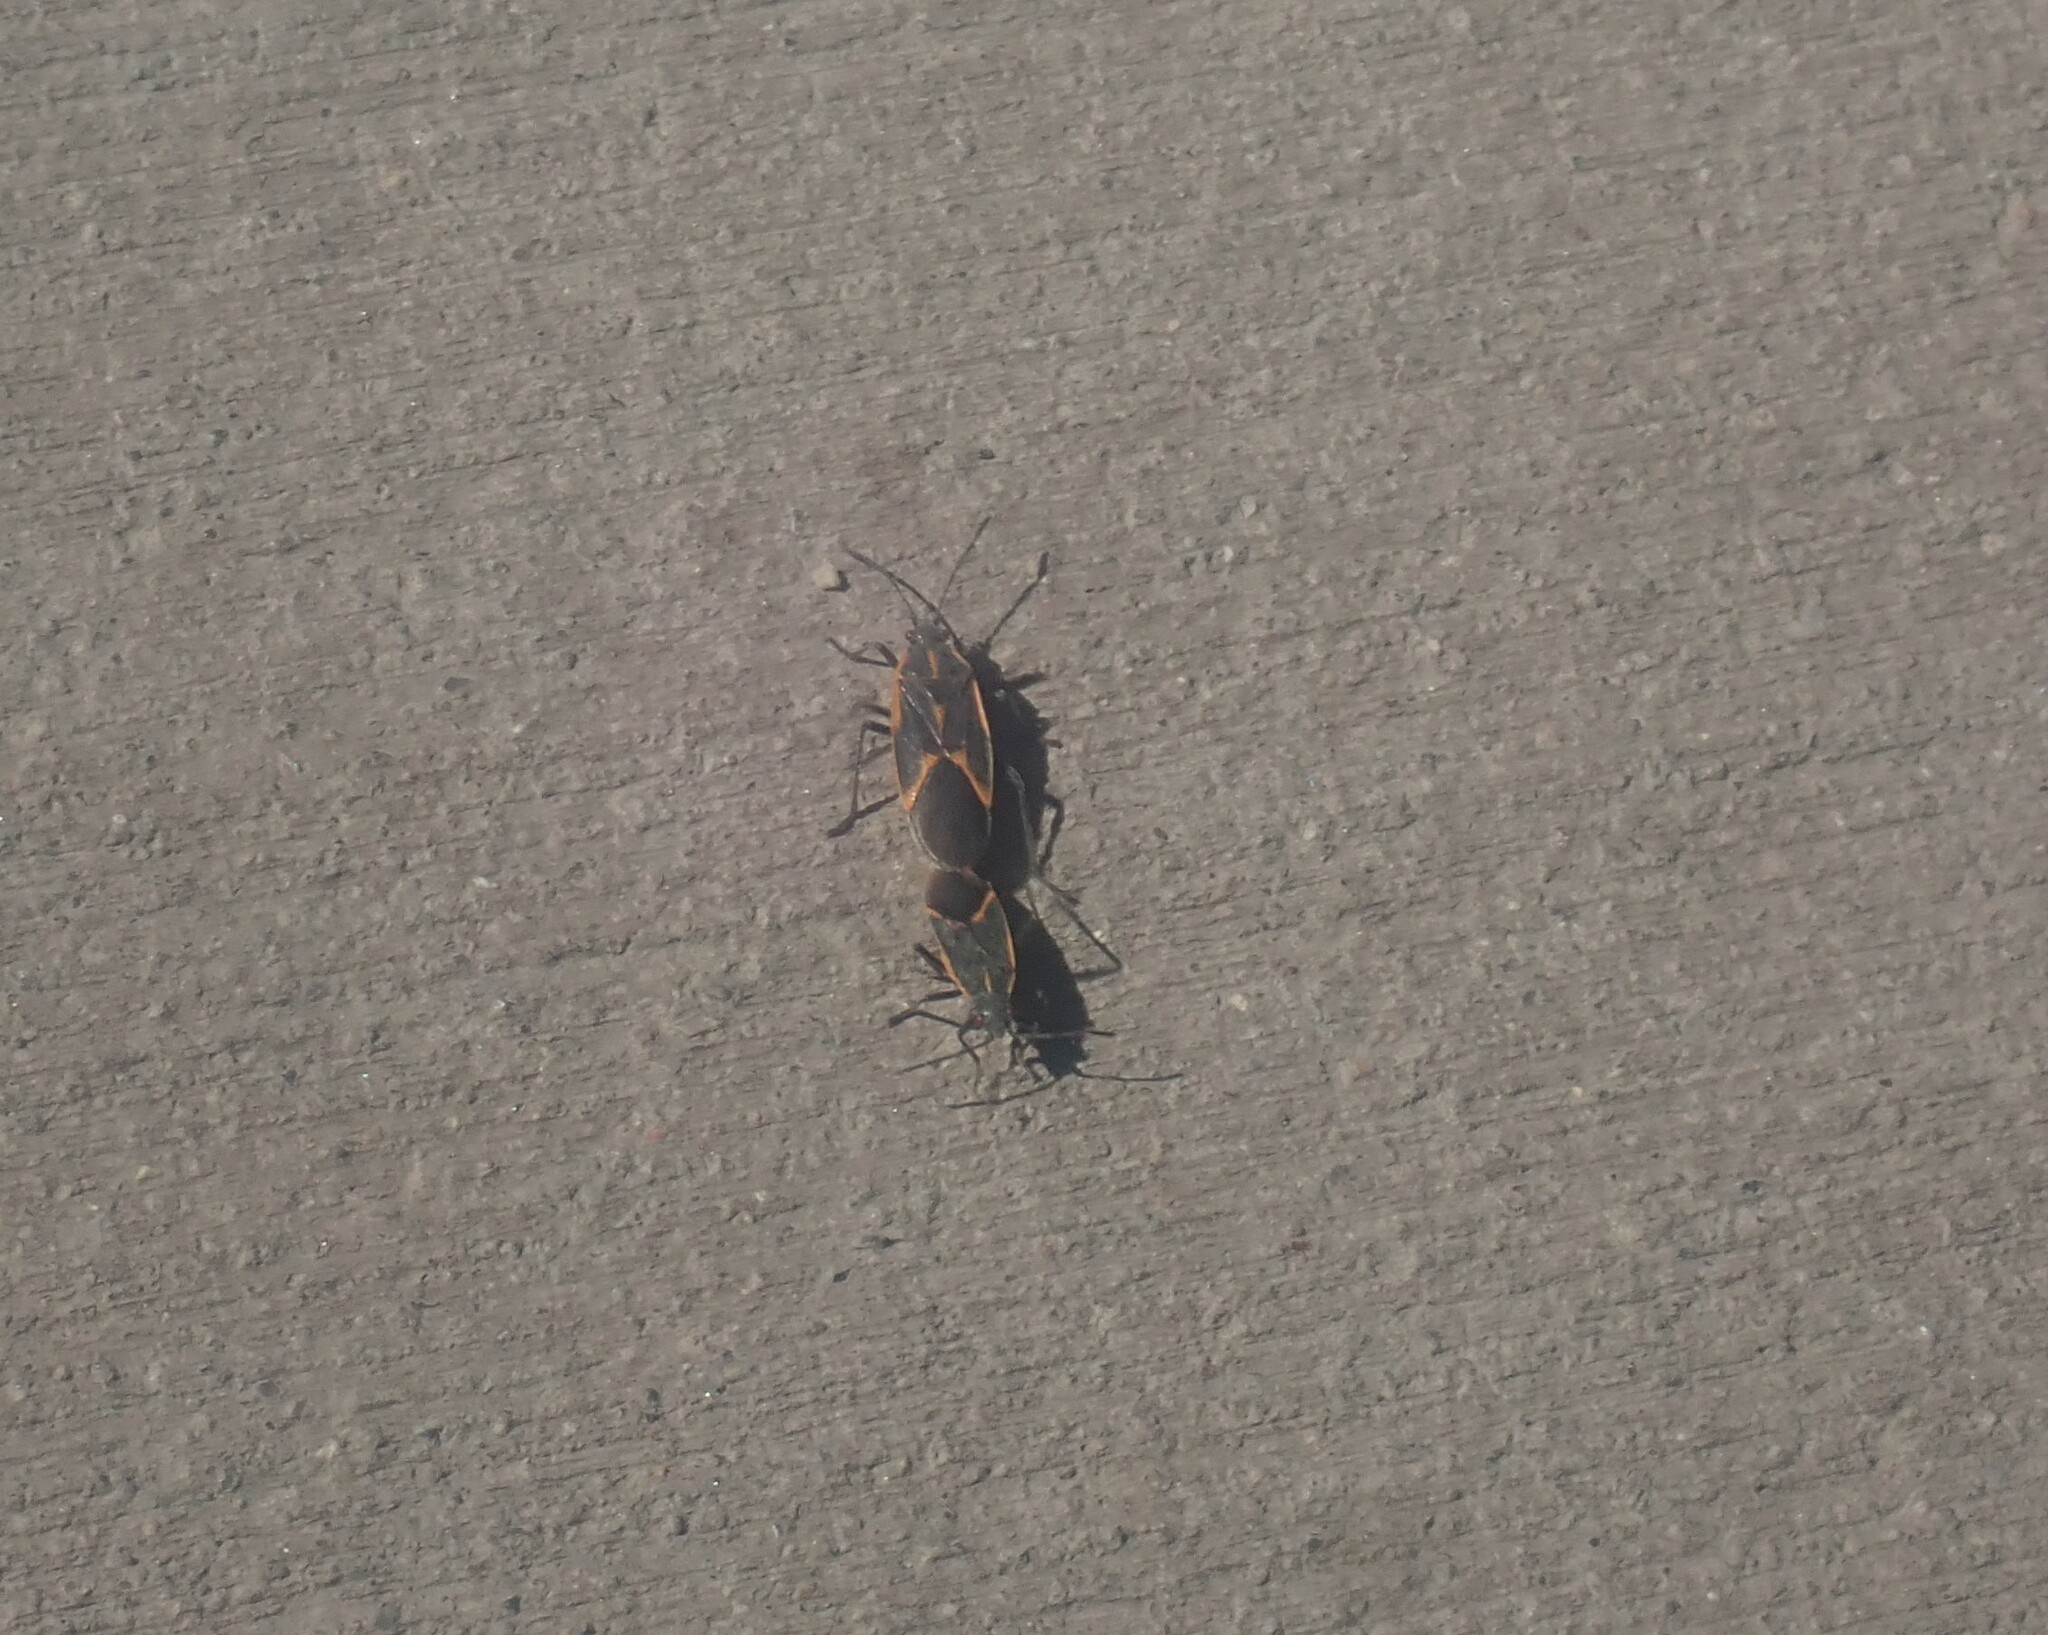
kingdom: Animalia
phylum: Arthropoda
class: Insecta
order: Hemiptera
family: Rhopalidae
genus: Boisea
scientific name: Boisea trivittata
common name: Boxelder bug
